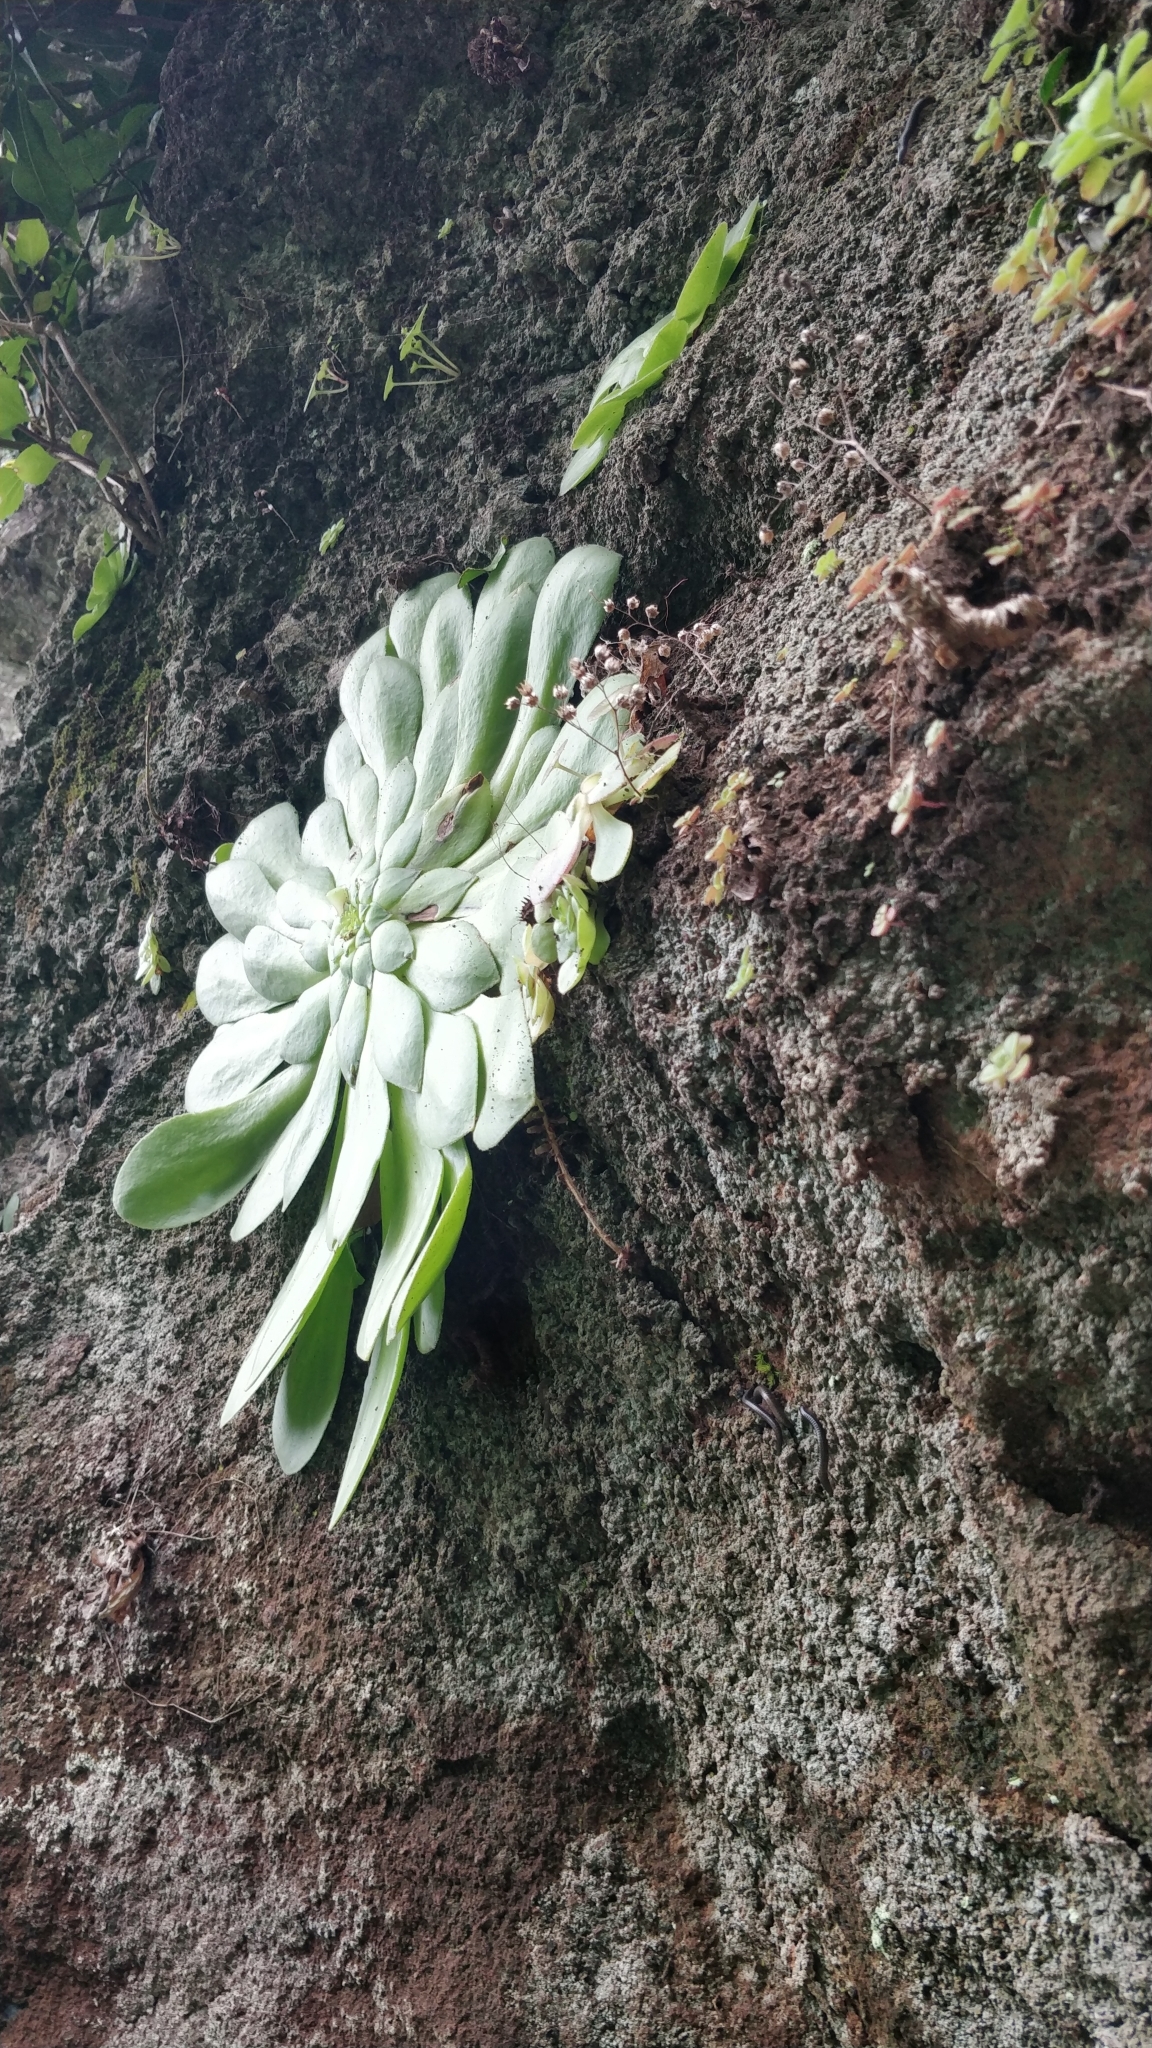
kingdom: Plantae
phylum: Tracheophyta
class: Magnoliopsida
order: Saxifragales
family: Crassulaceae
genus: Aeonium
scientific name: Aeonium glandulosum
